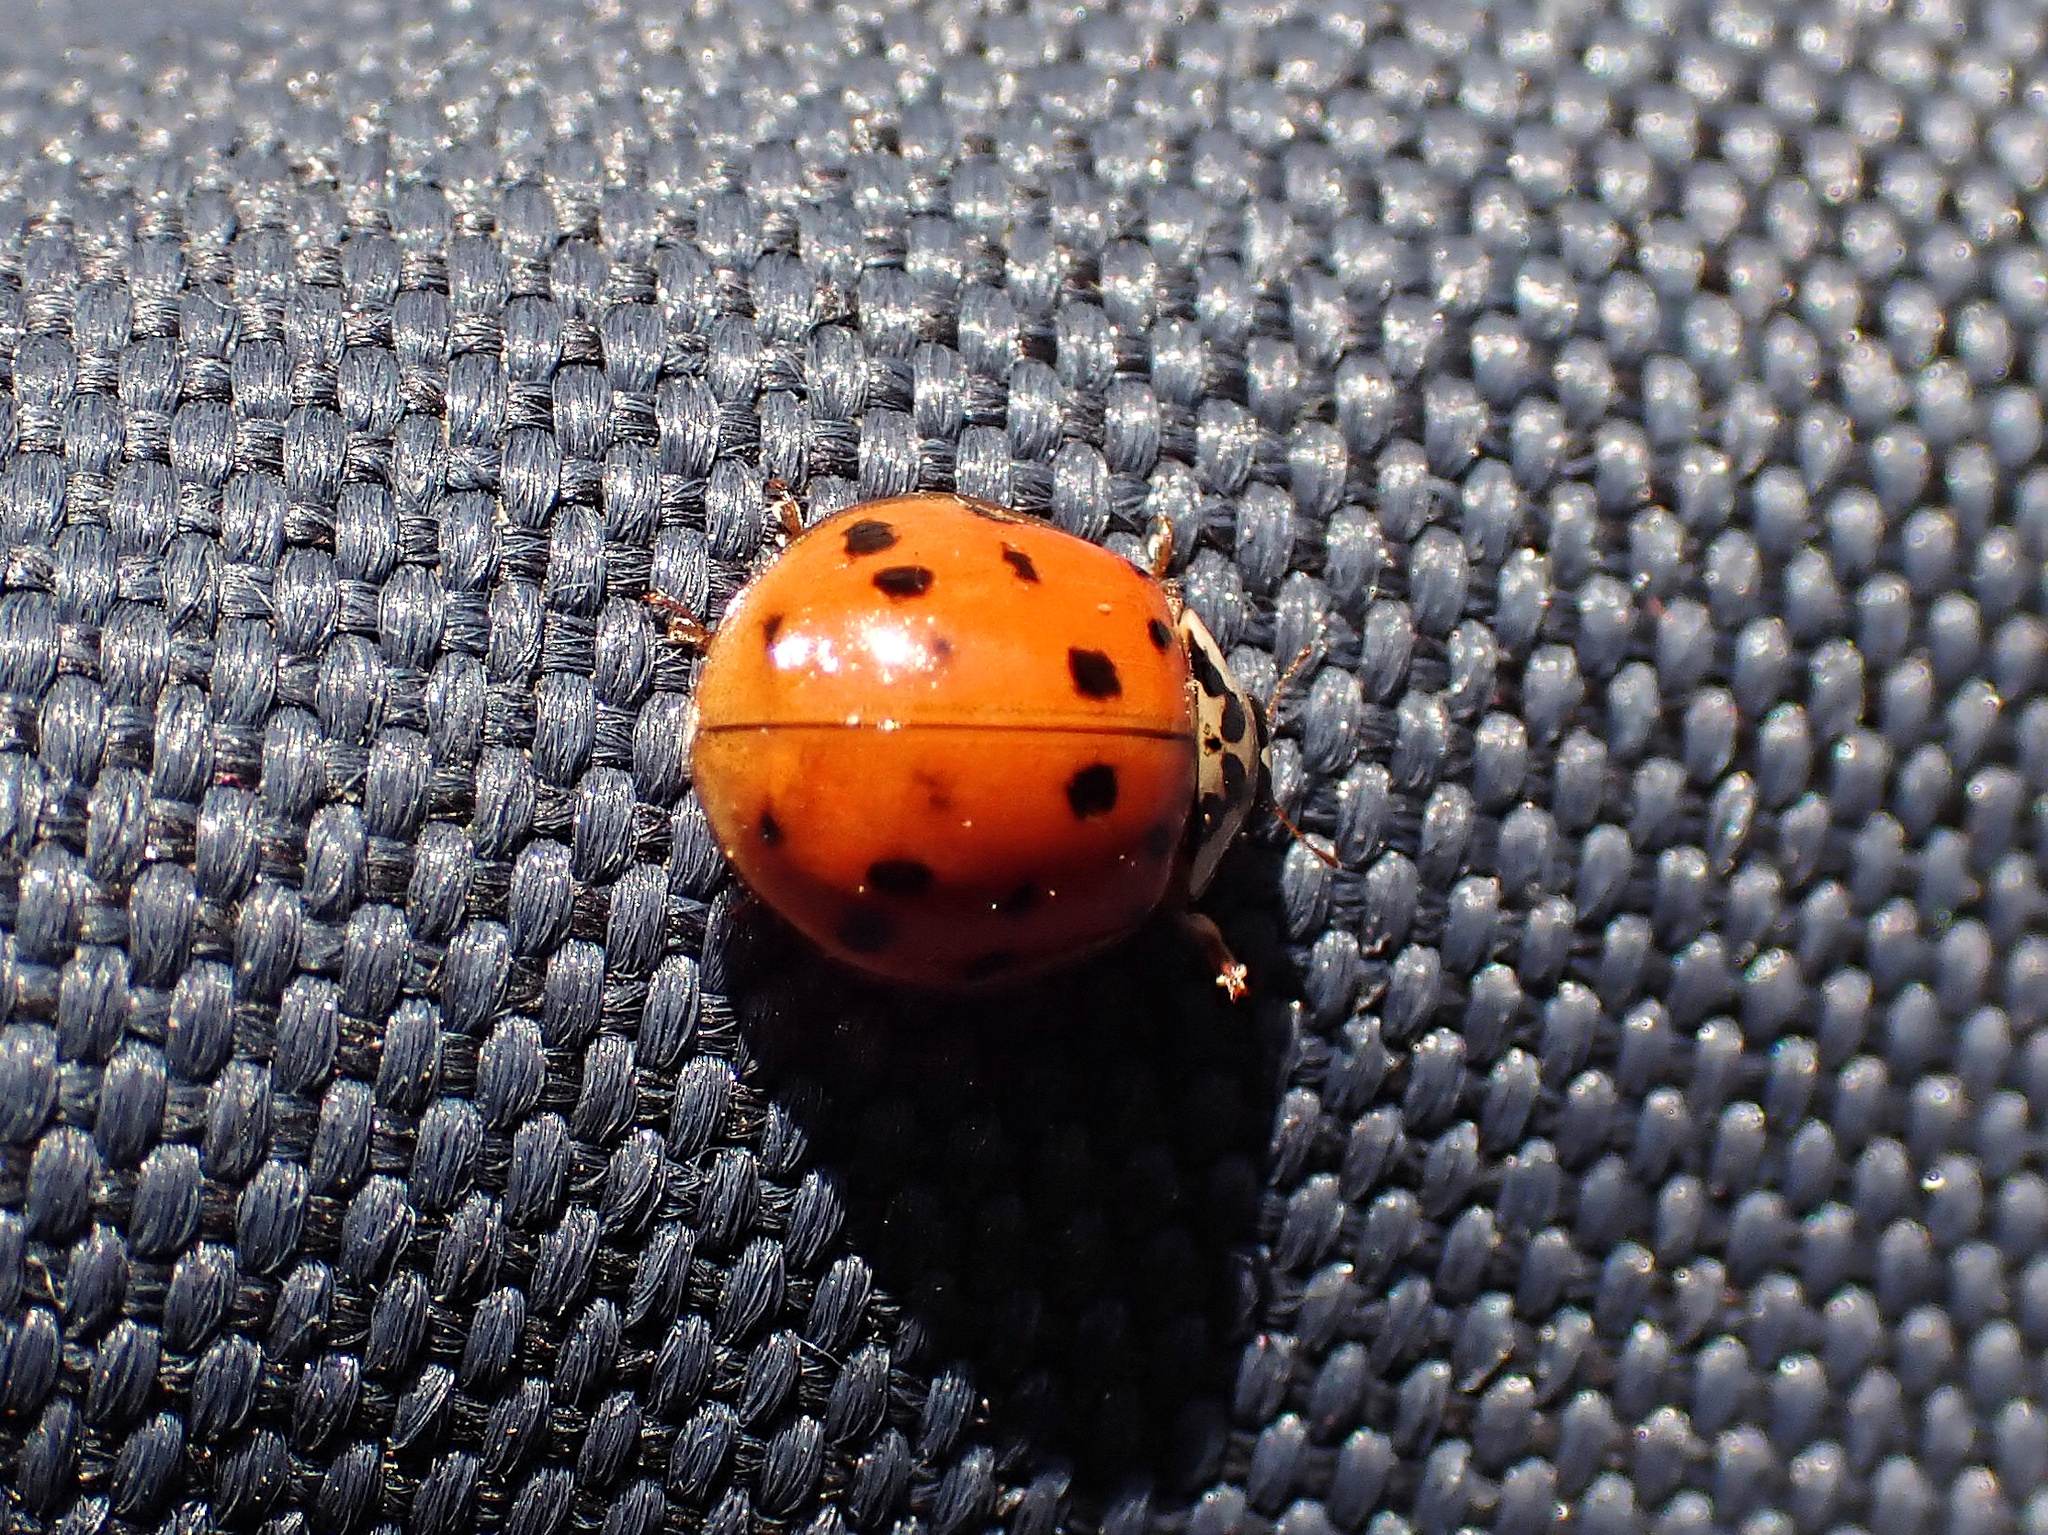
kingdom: Animalia
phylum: Arthropoda
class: Insecta
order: Coleoptera
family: Coccinellidae
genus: Harmonia
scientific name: Harmonia axyridis
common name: Harlequin ladybird
